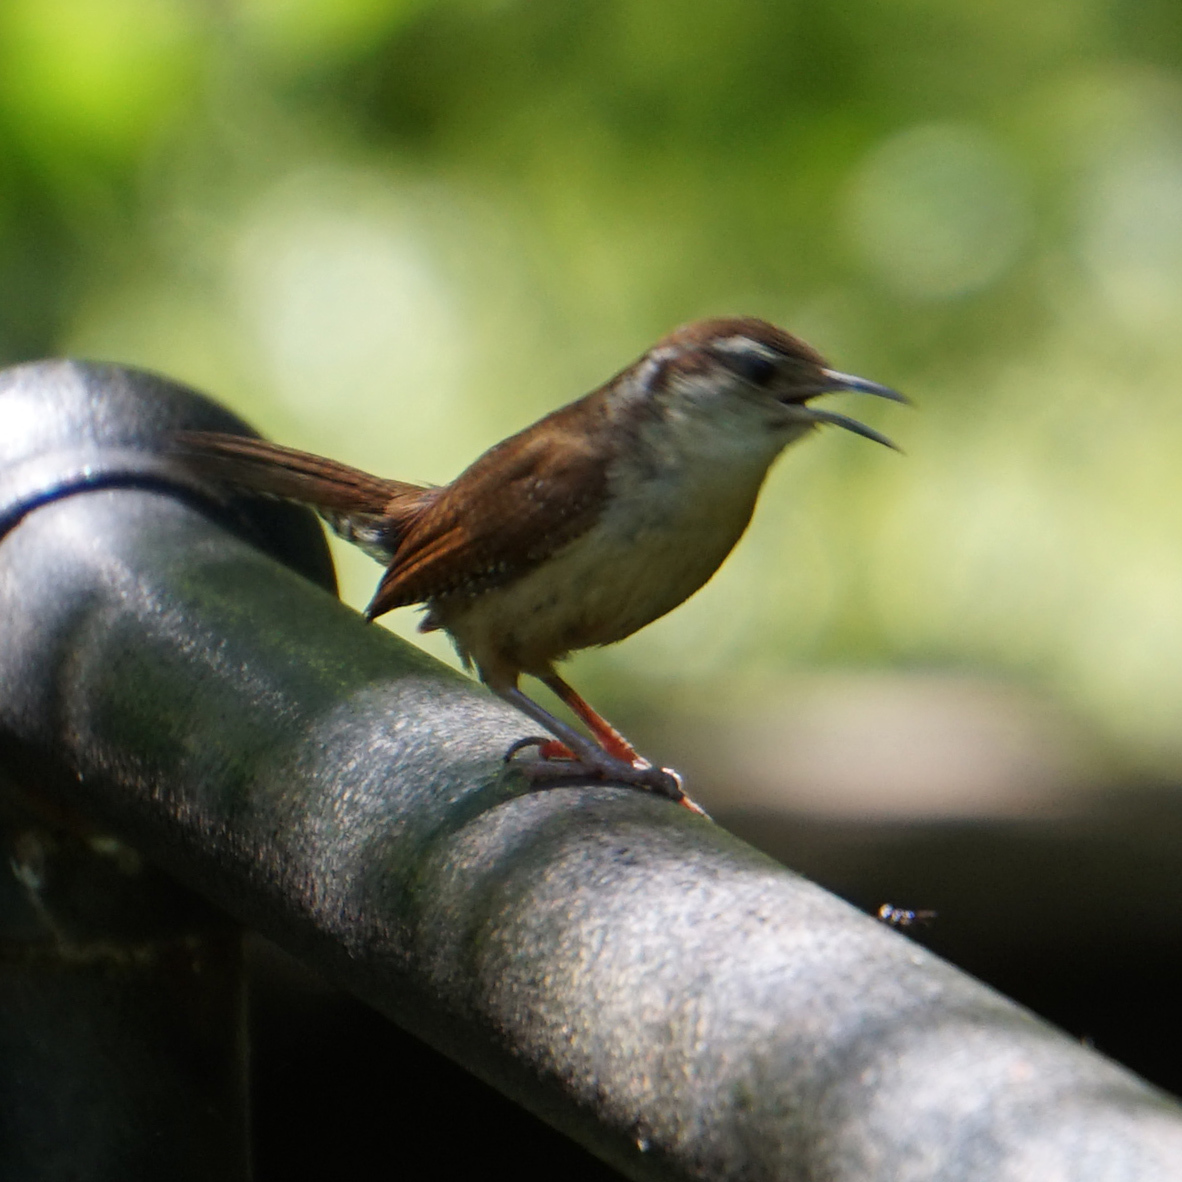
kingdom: Animalia
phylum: Chordata
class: Aves
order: Passeriformes
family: Troglodytidae
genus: Thryothorus
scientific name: Thryothorus ludovicianus
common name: Carolina wren
